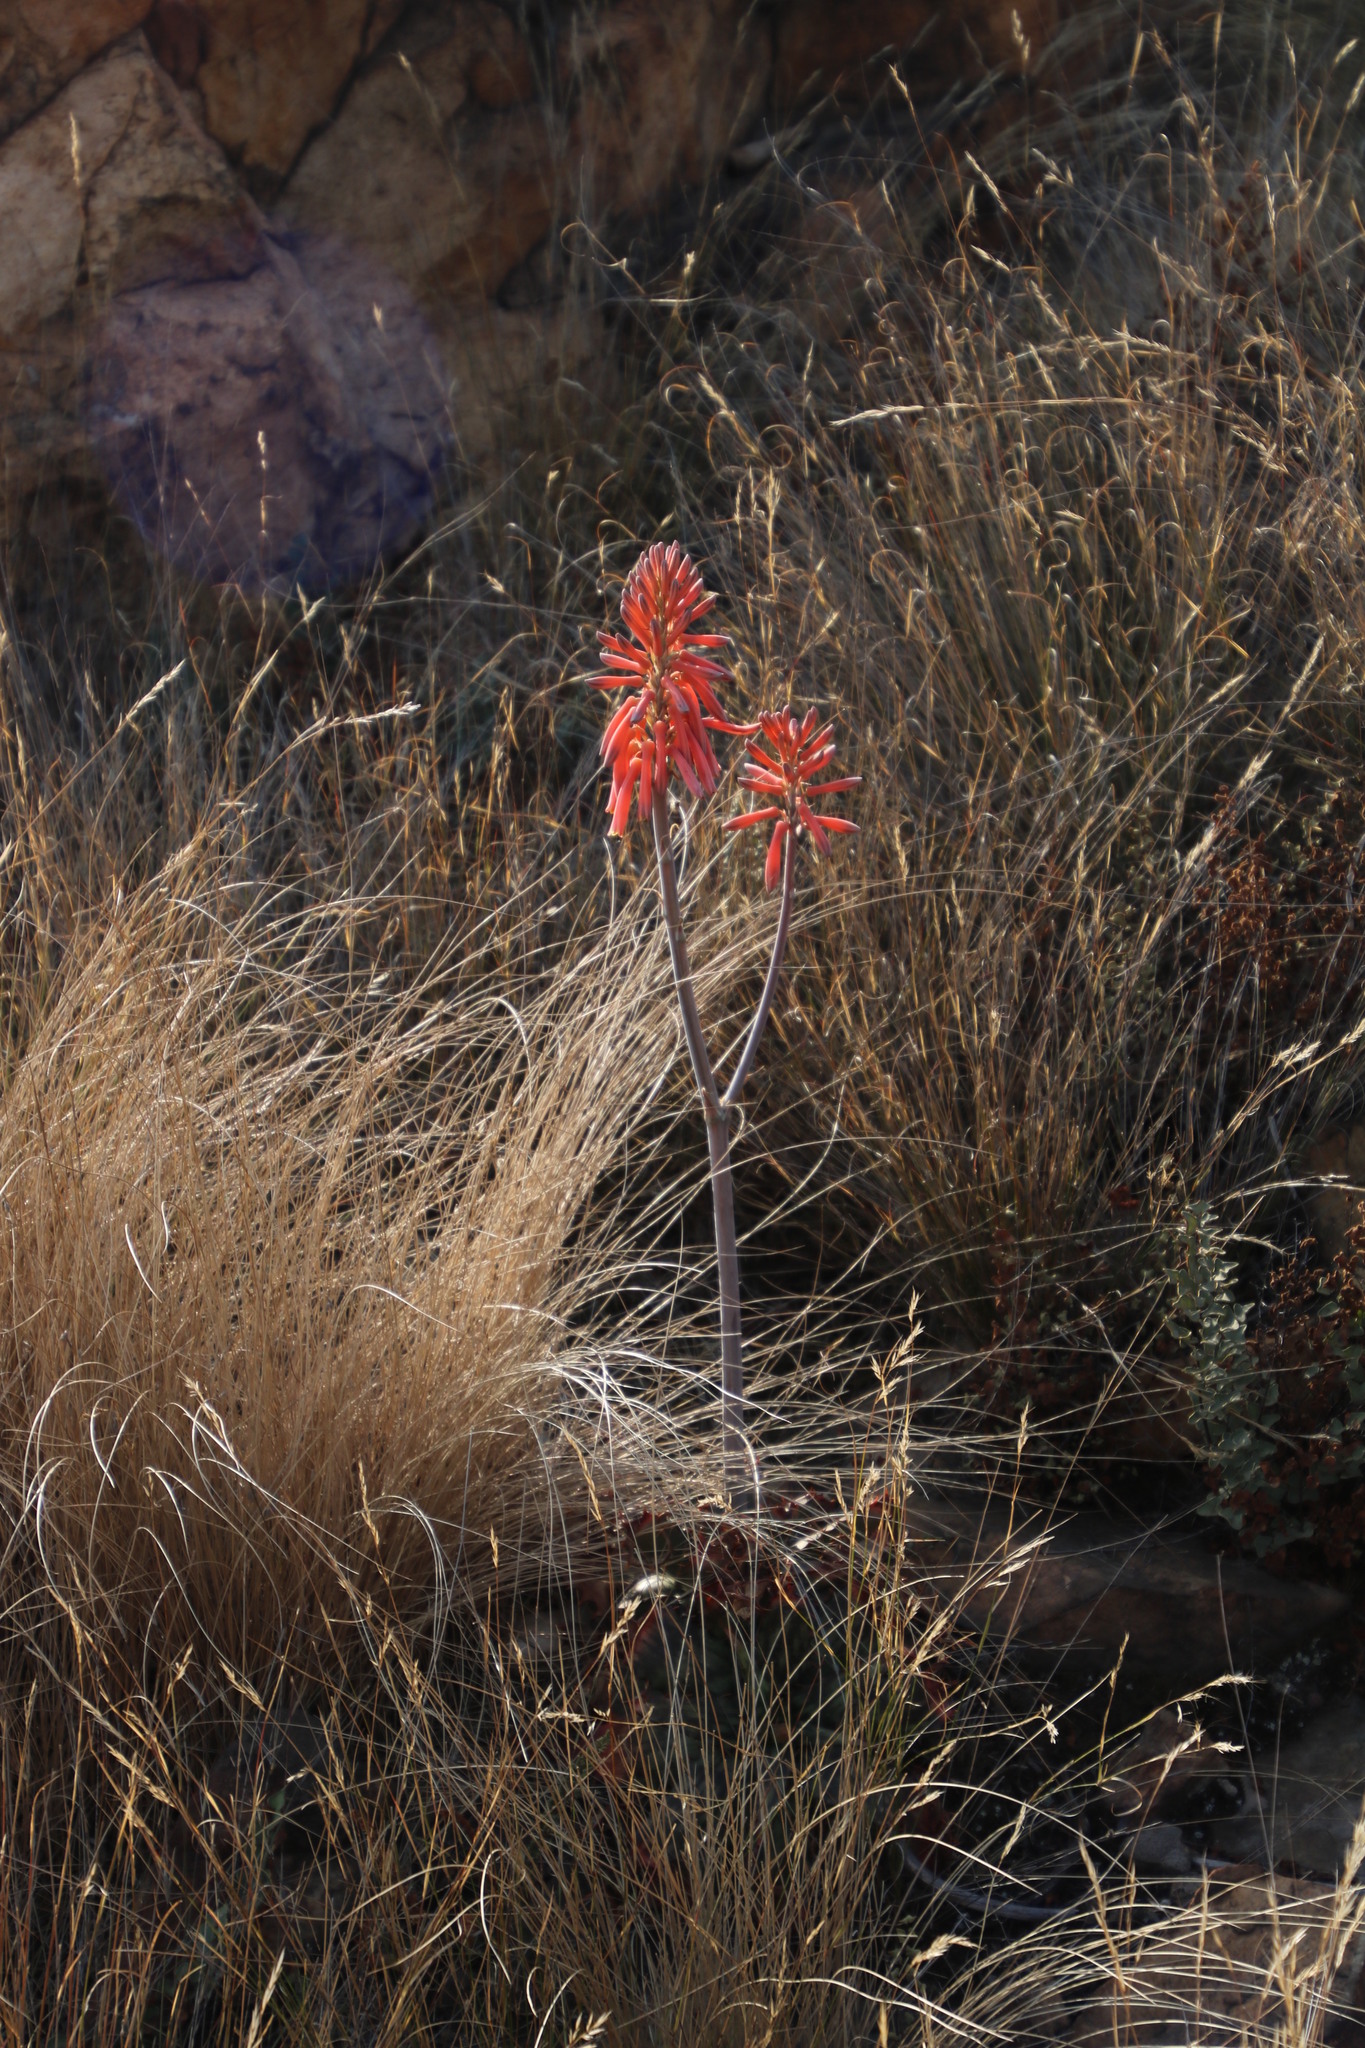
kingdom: Plantae
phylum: Tracheophyta
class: Liliopsida
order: Asparagales
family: Asphodelaceae
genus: Aloe
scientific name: Aloe davyana
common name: Spotted aloe
